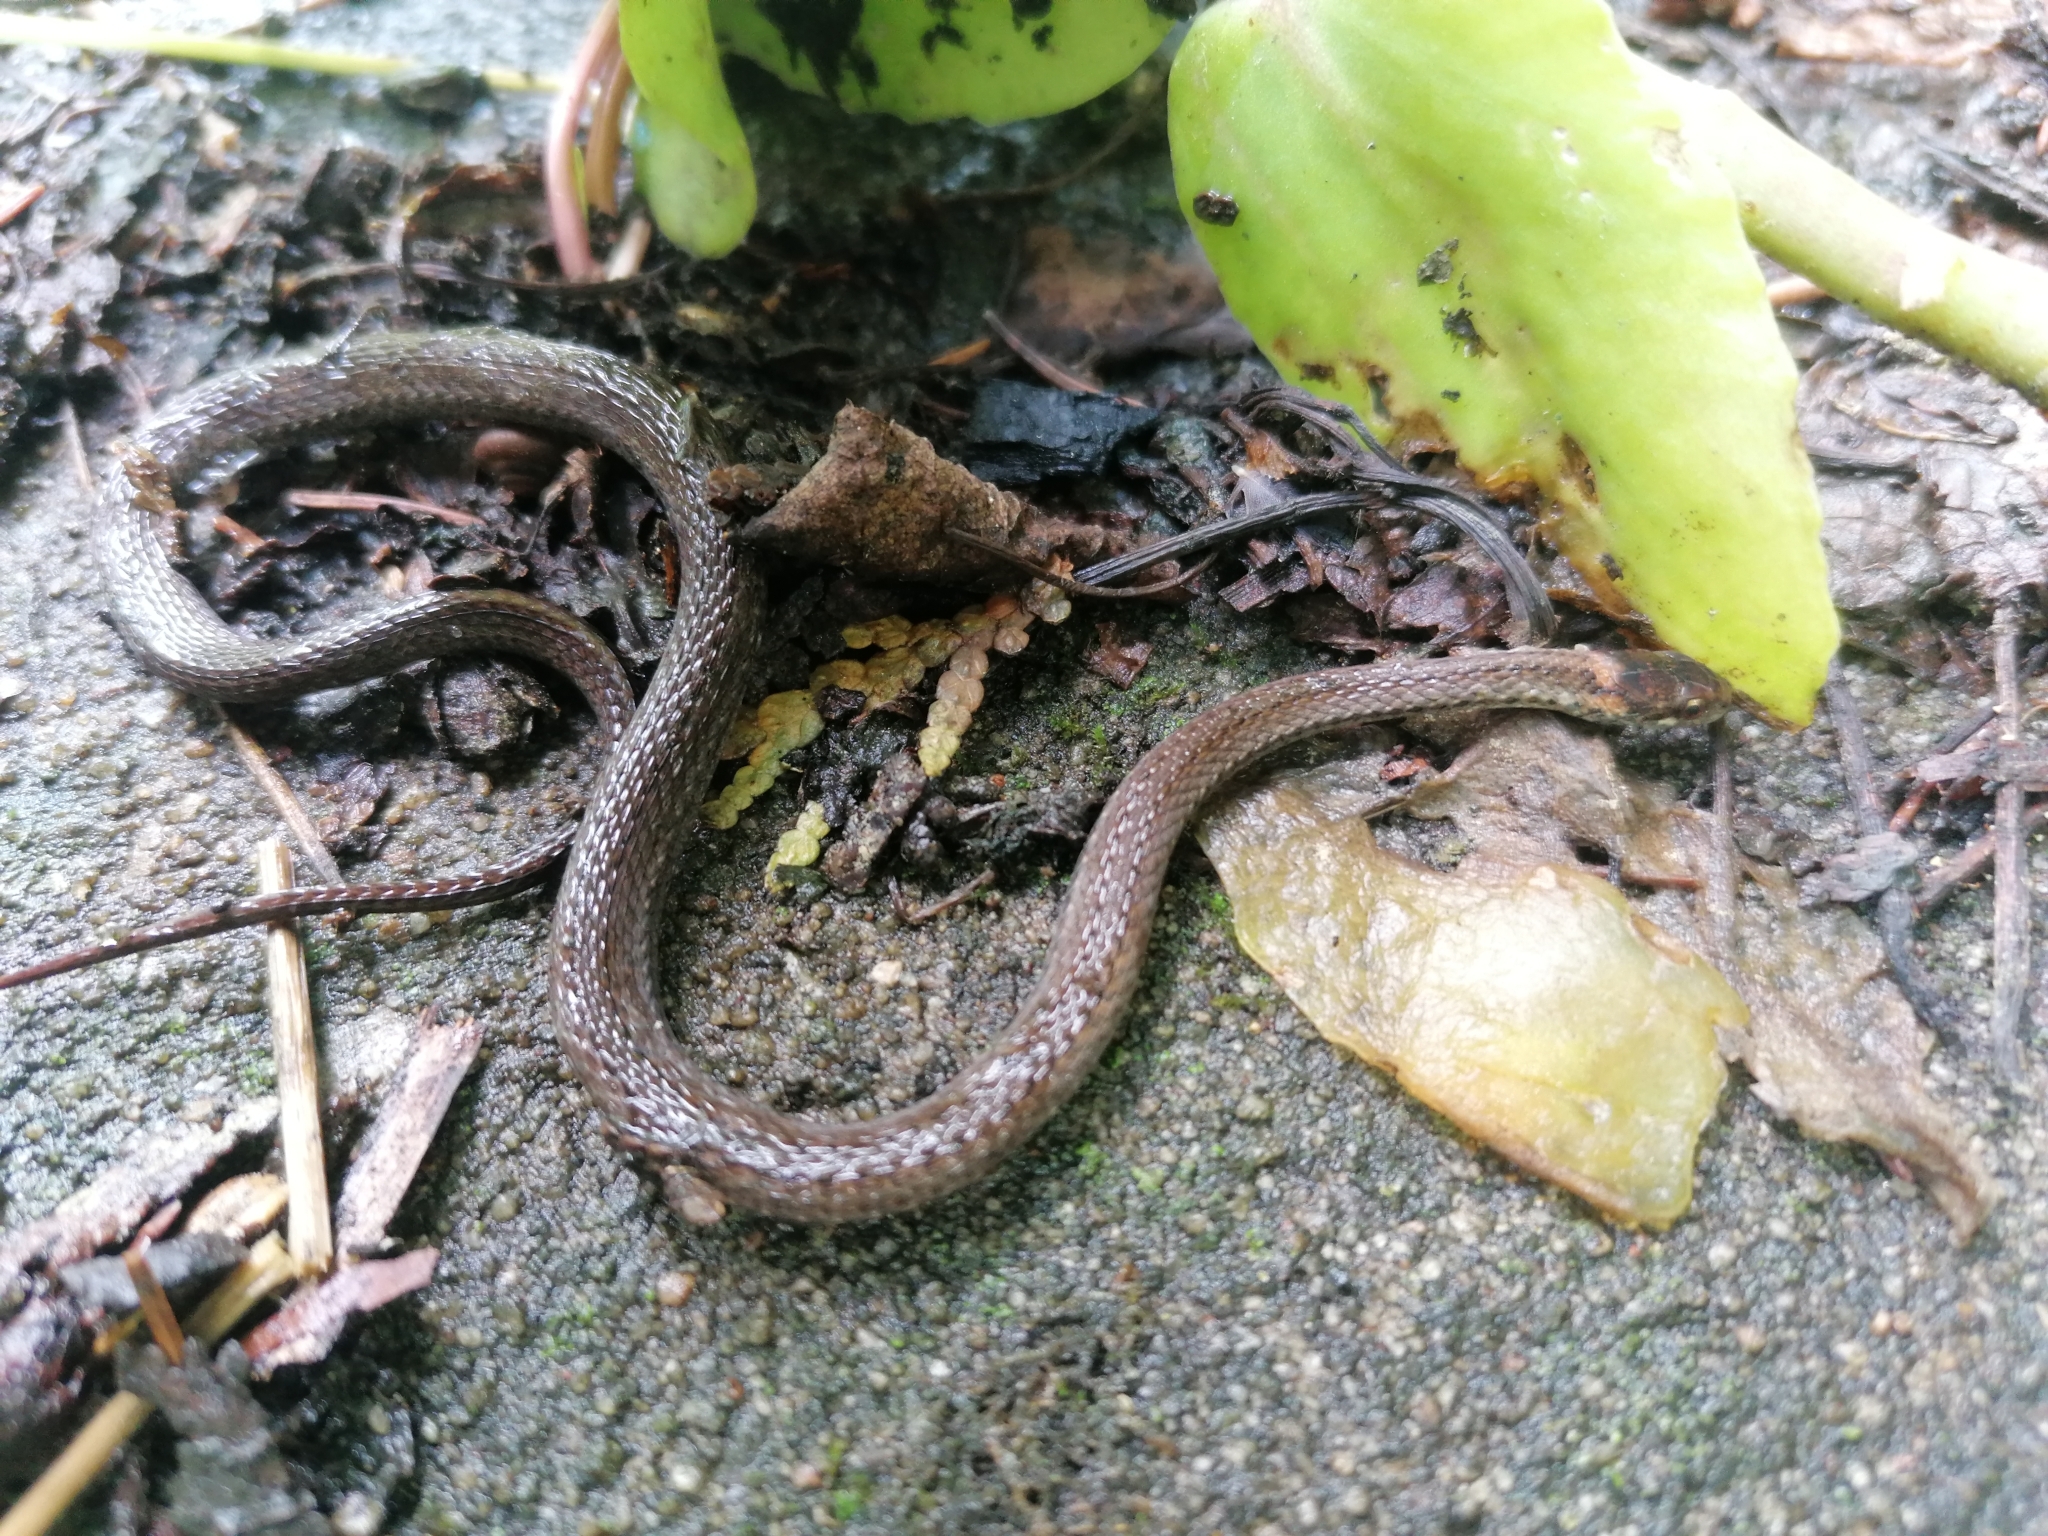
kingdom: Animalia
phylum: Chordata
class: Squamata
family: Colubridae
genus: Storeria
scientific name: Storeria occipitomaculata
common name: Redbelly snake
